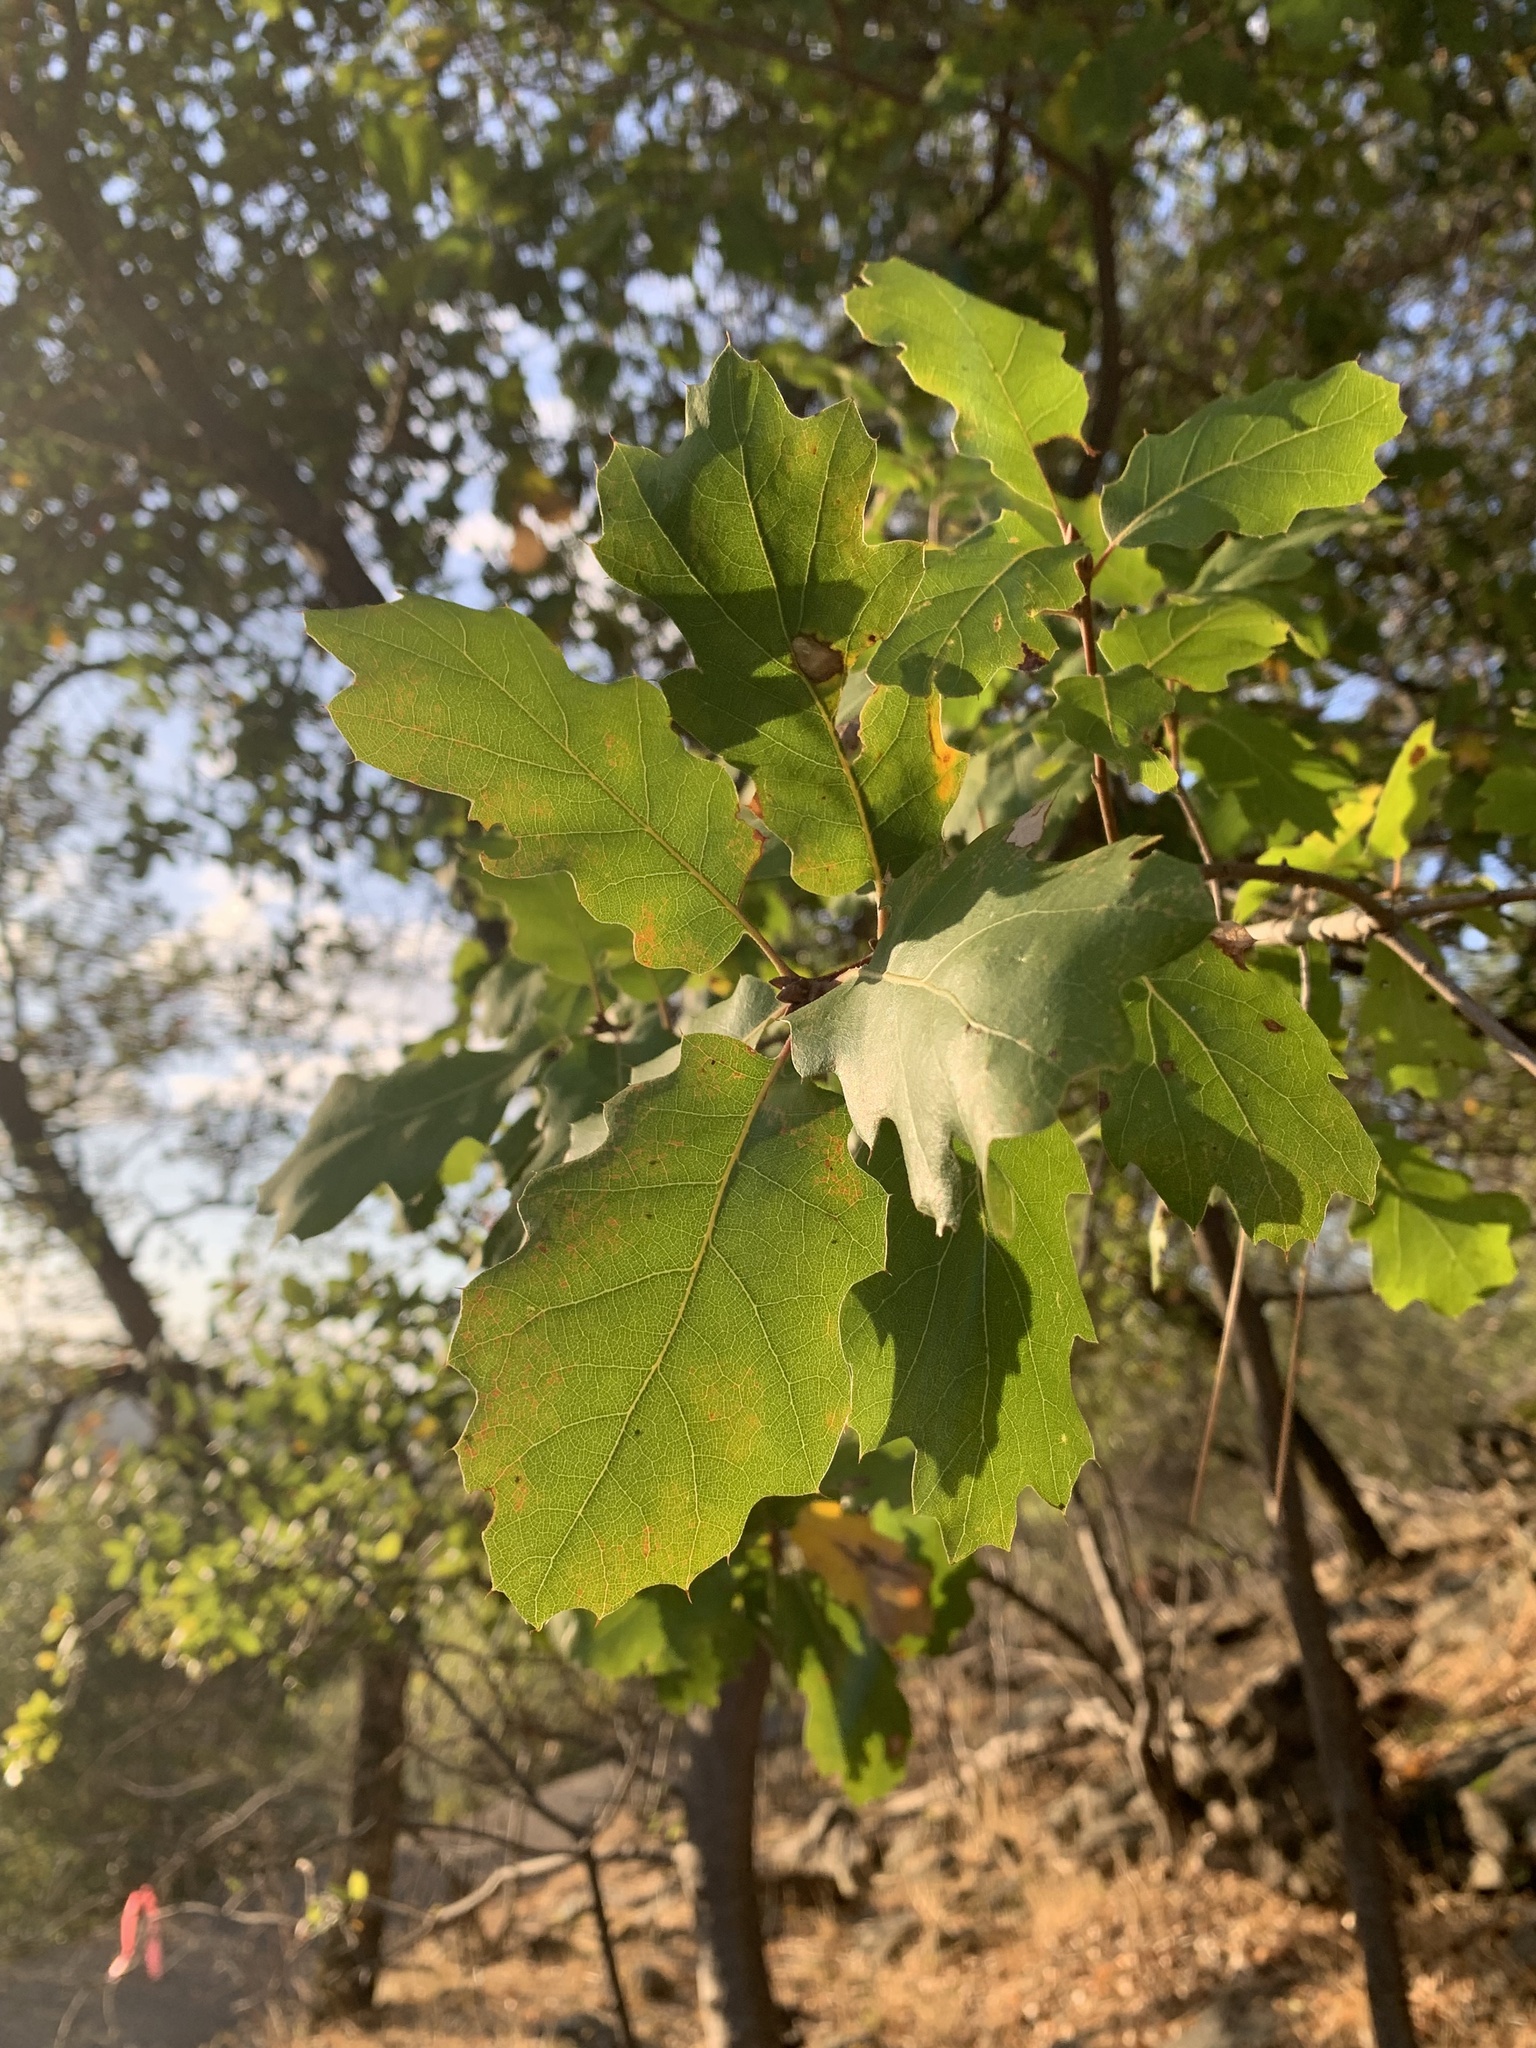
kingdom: Plantae
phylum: Tracheophyta
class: Magnoliopsida
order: Fagales
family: Fagaceae
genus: Quercus
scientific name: Quercus morehus
